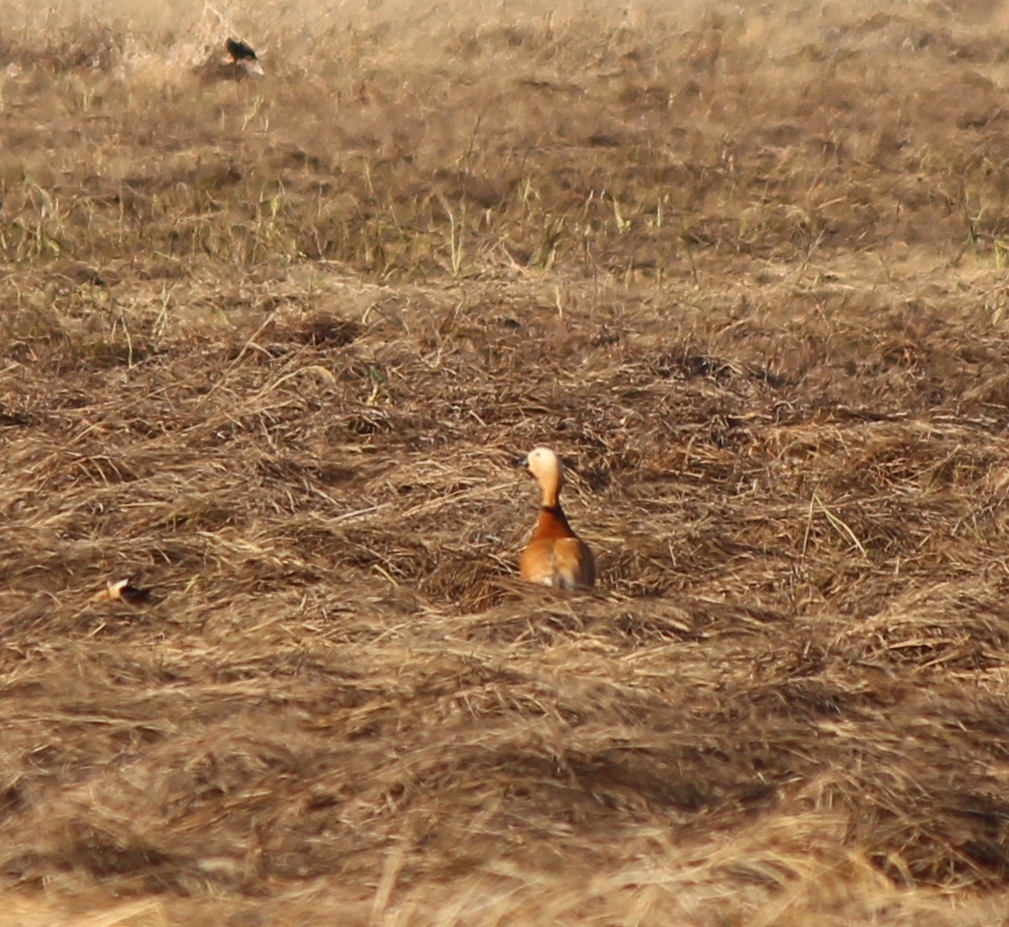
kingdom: Animalia
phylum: Chordata
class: Aves
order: Anseriformes
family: Anatidae
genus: Tadorna
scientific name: Tadorna ferruginea
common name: Ruddy shelduck
